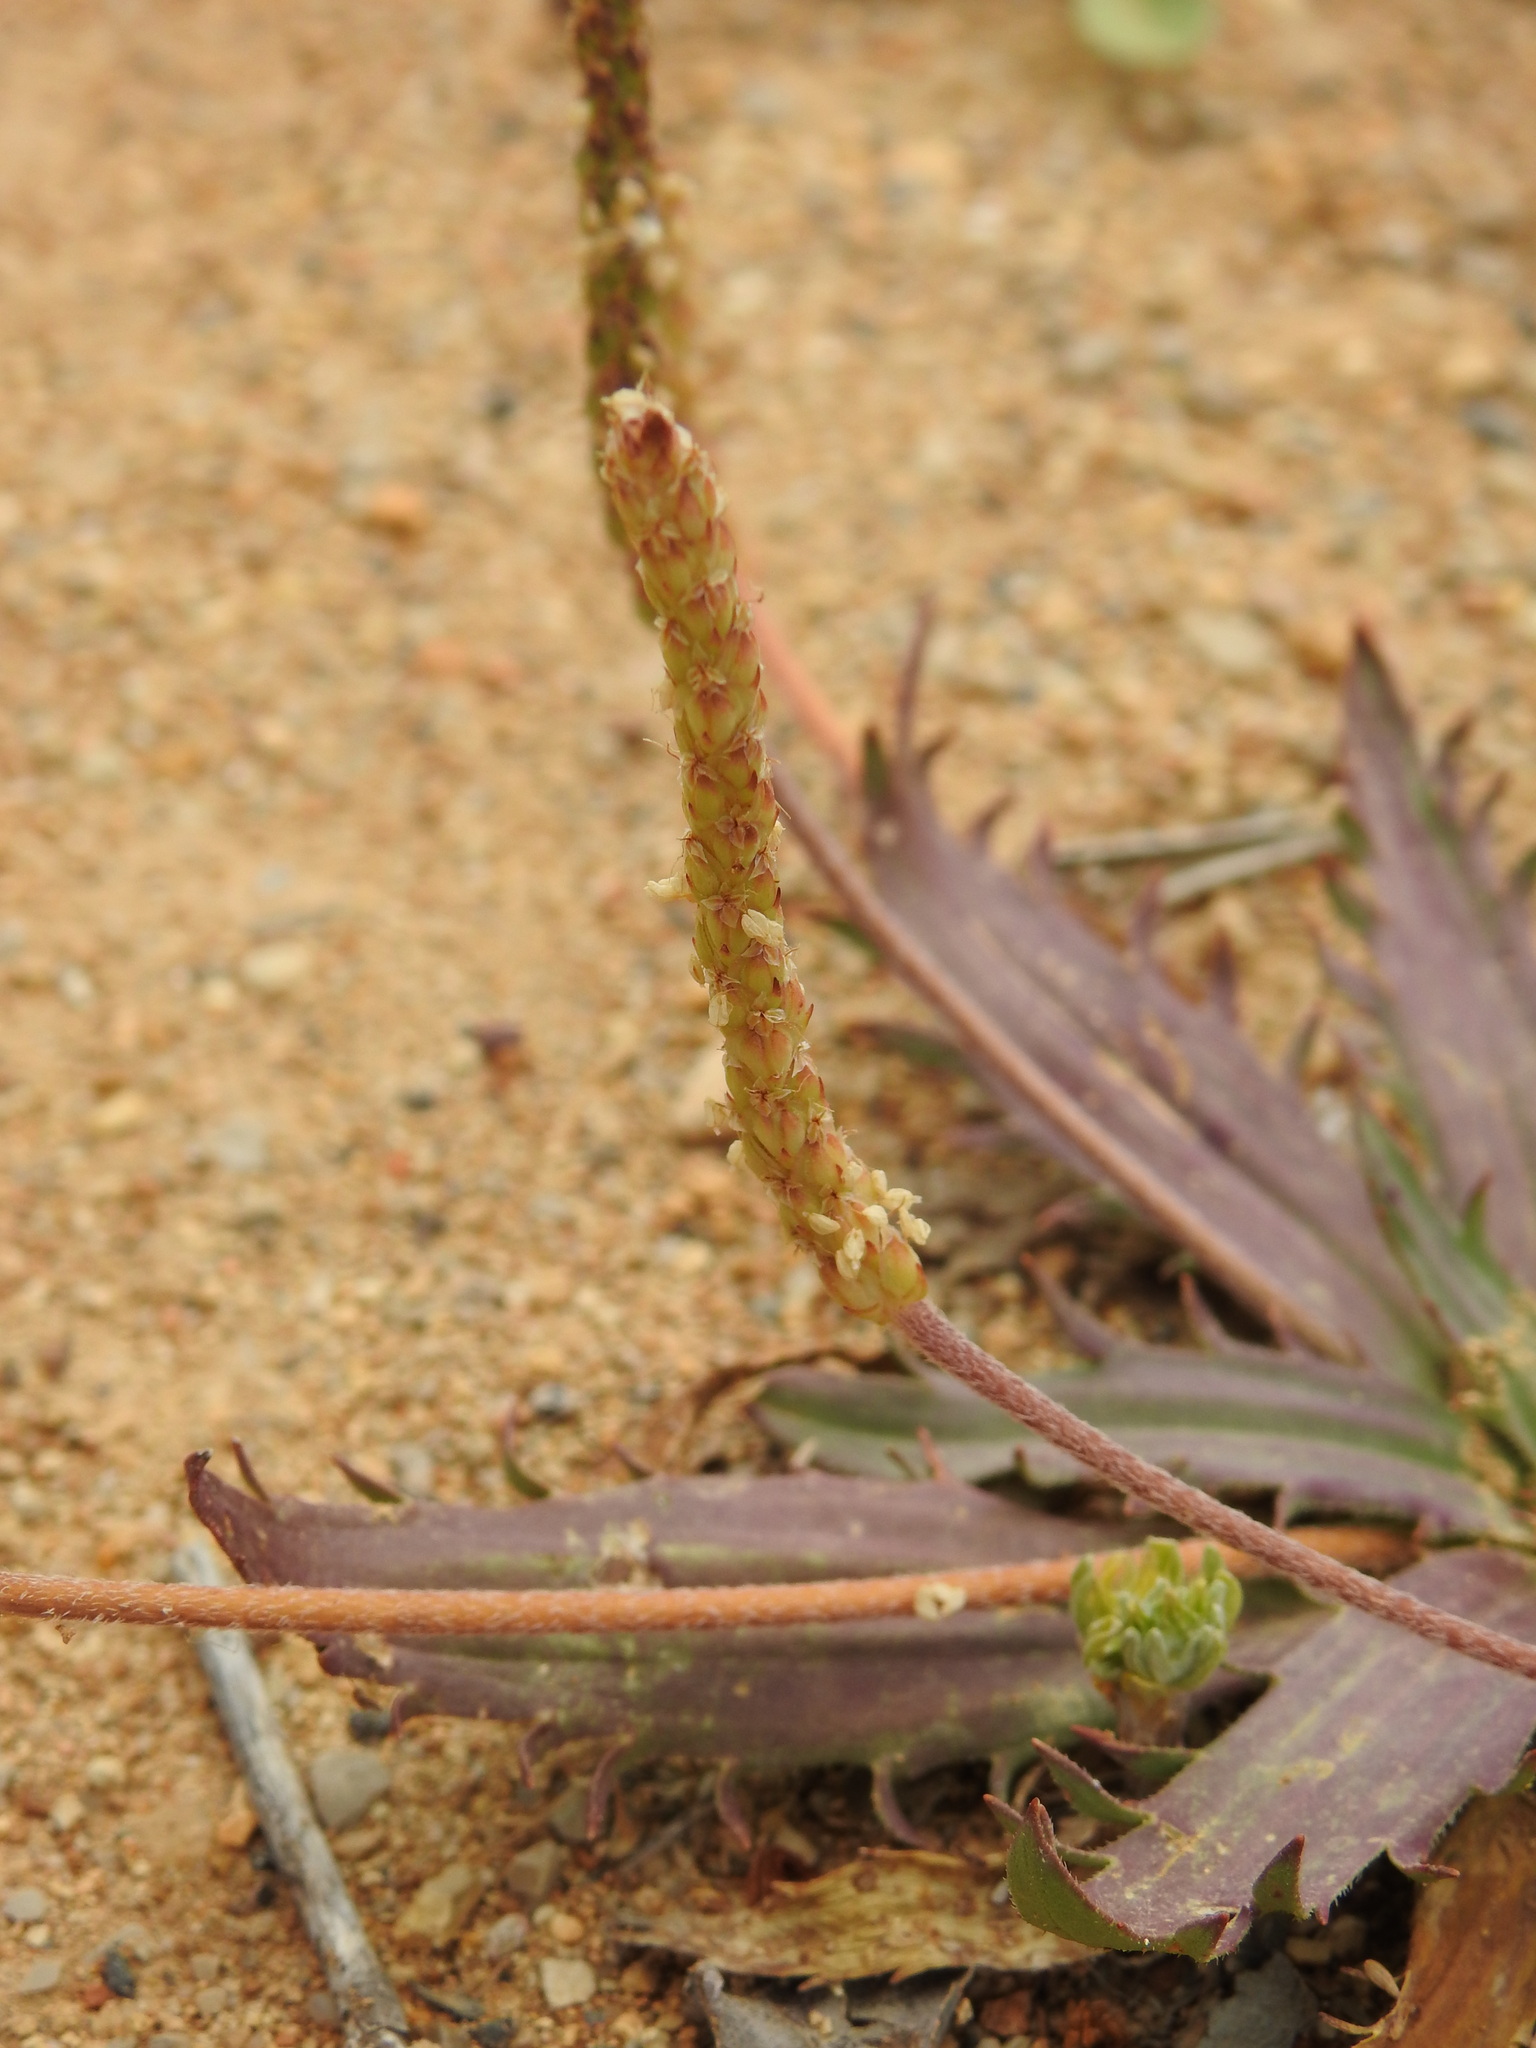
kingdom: Plantae
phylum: Tracheophyta
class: Magnoliopsida
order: Lamiales
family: Plantaginaceae
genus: Plantago
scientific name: Plantago serraria
